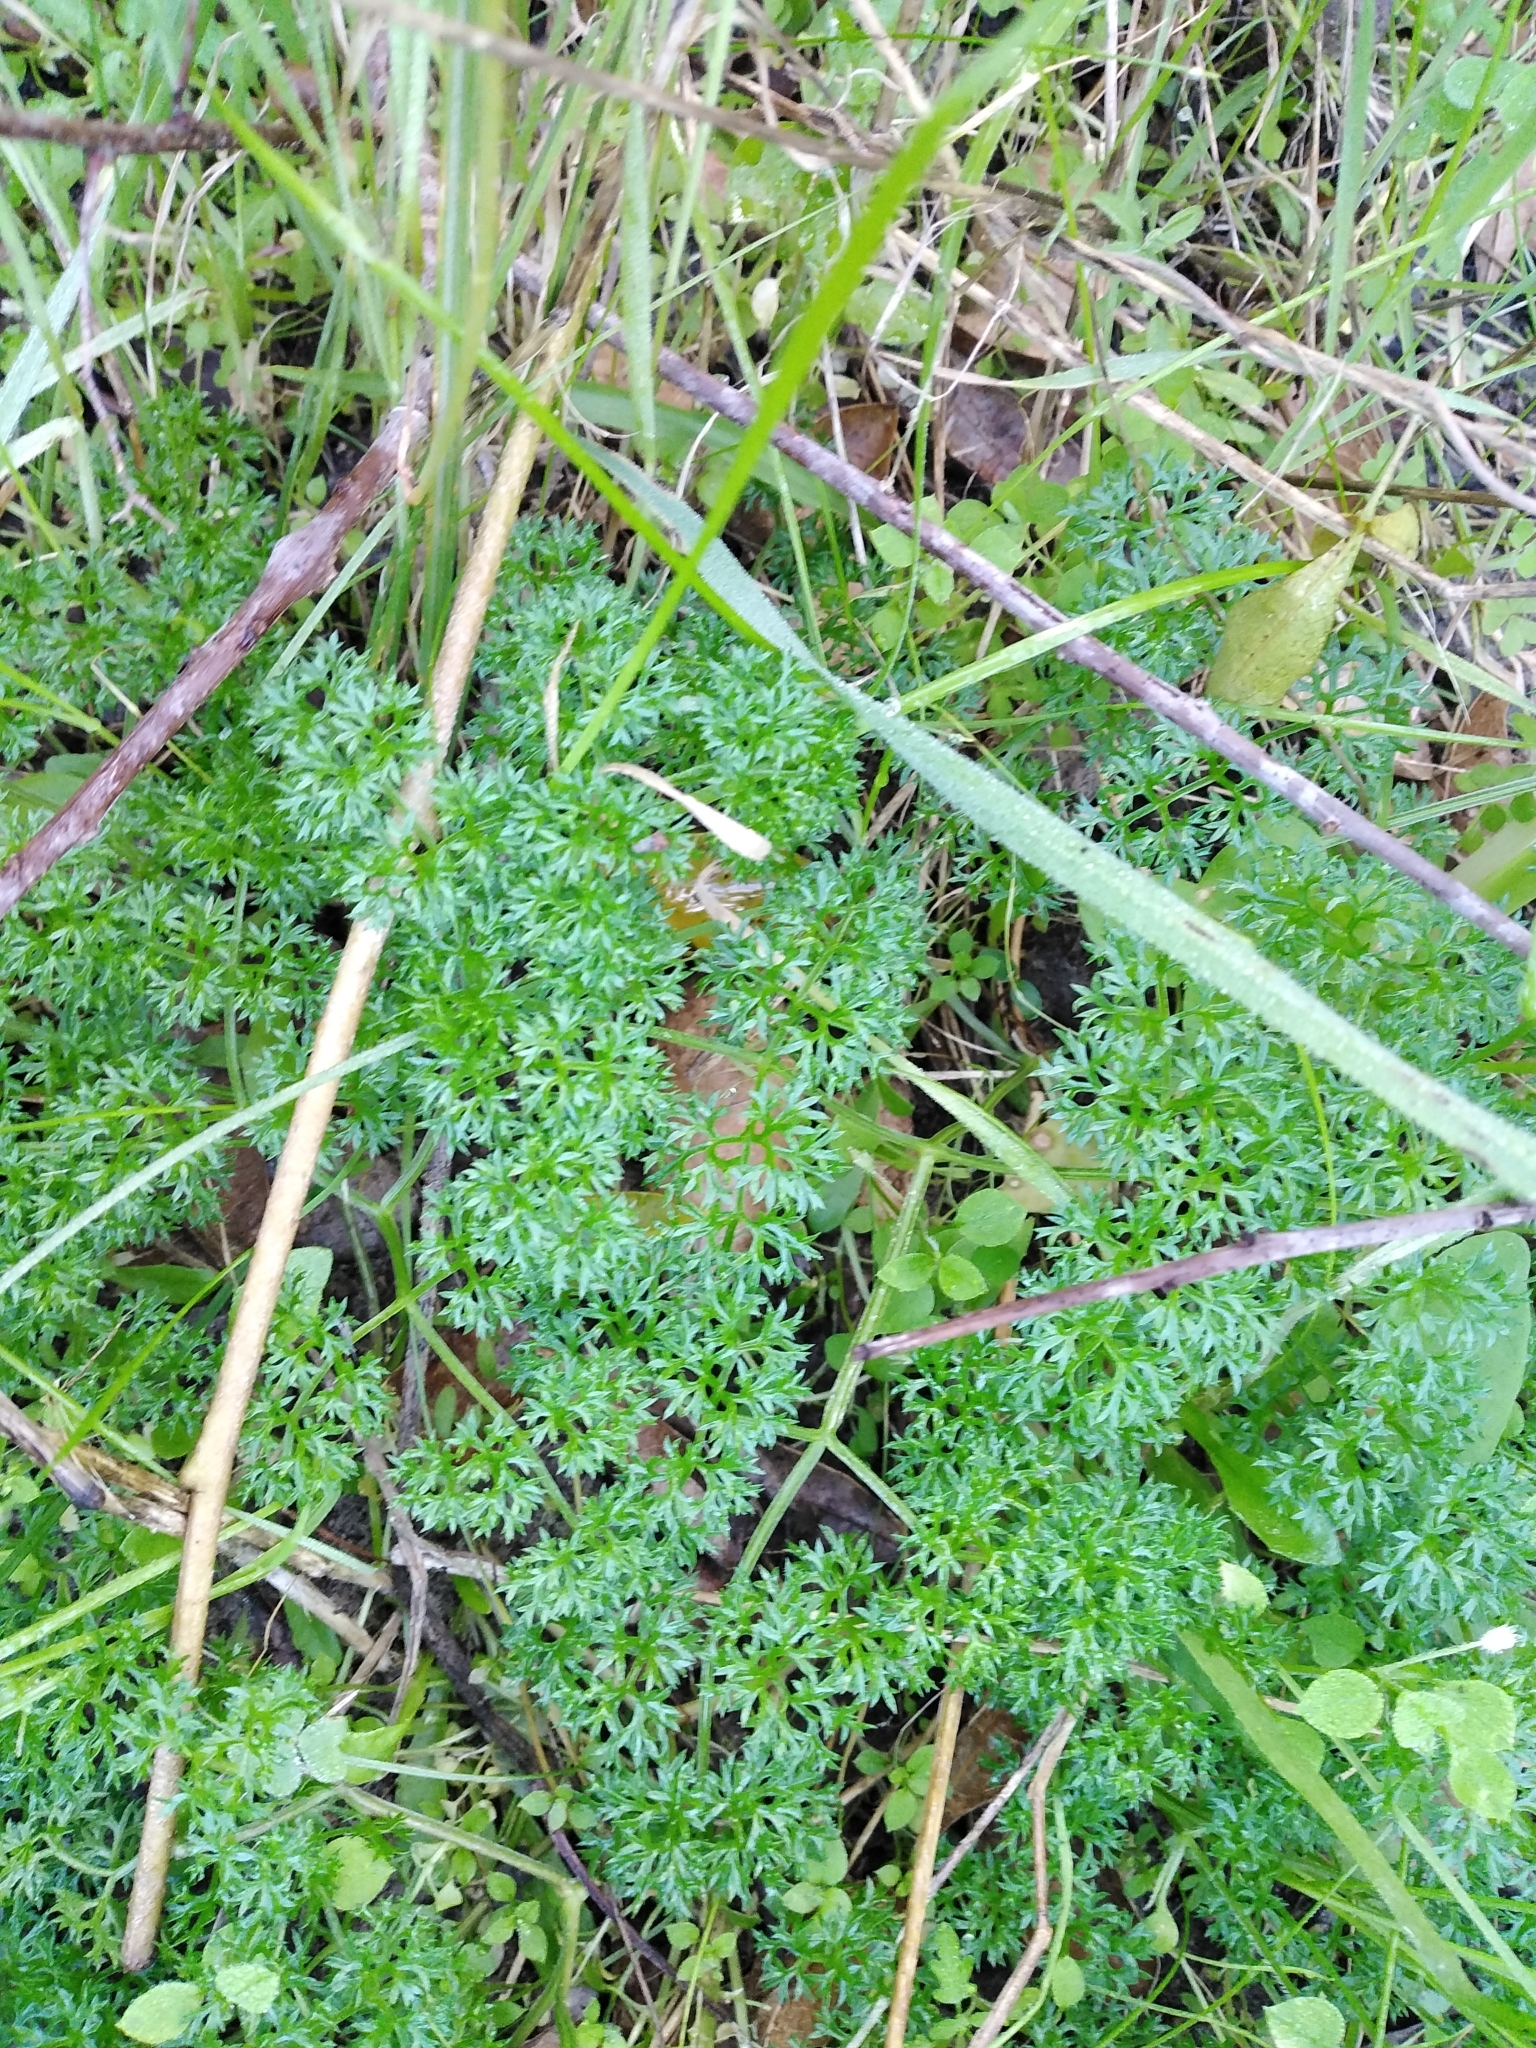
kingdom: Plantae
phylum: Tracheophyta
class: Magnoliopsida
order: Apiales
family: Apiaceae
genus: Annesorhiza
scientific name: Annesorhiza macrocarpa
